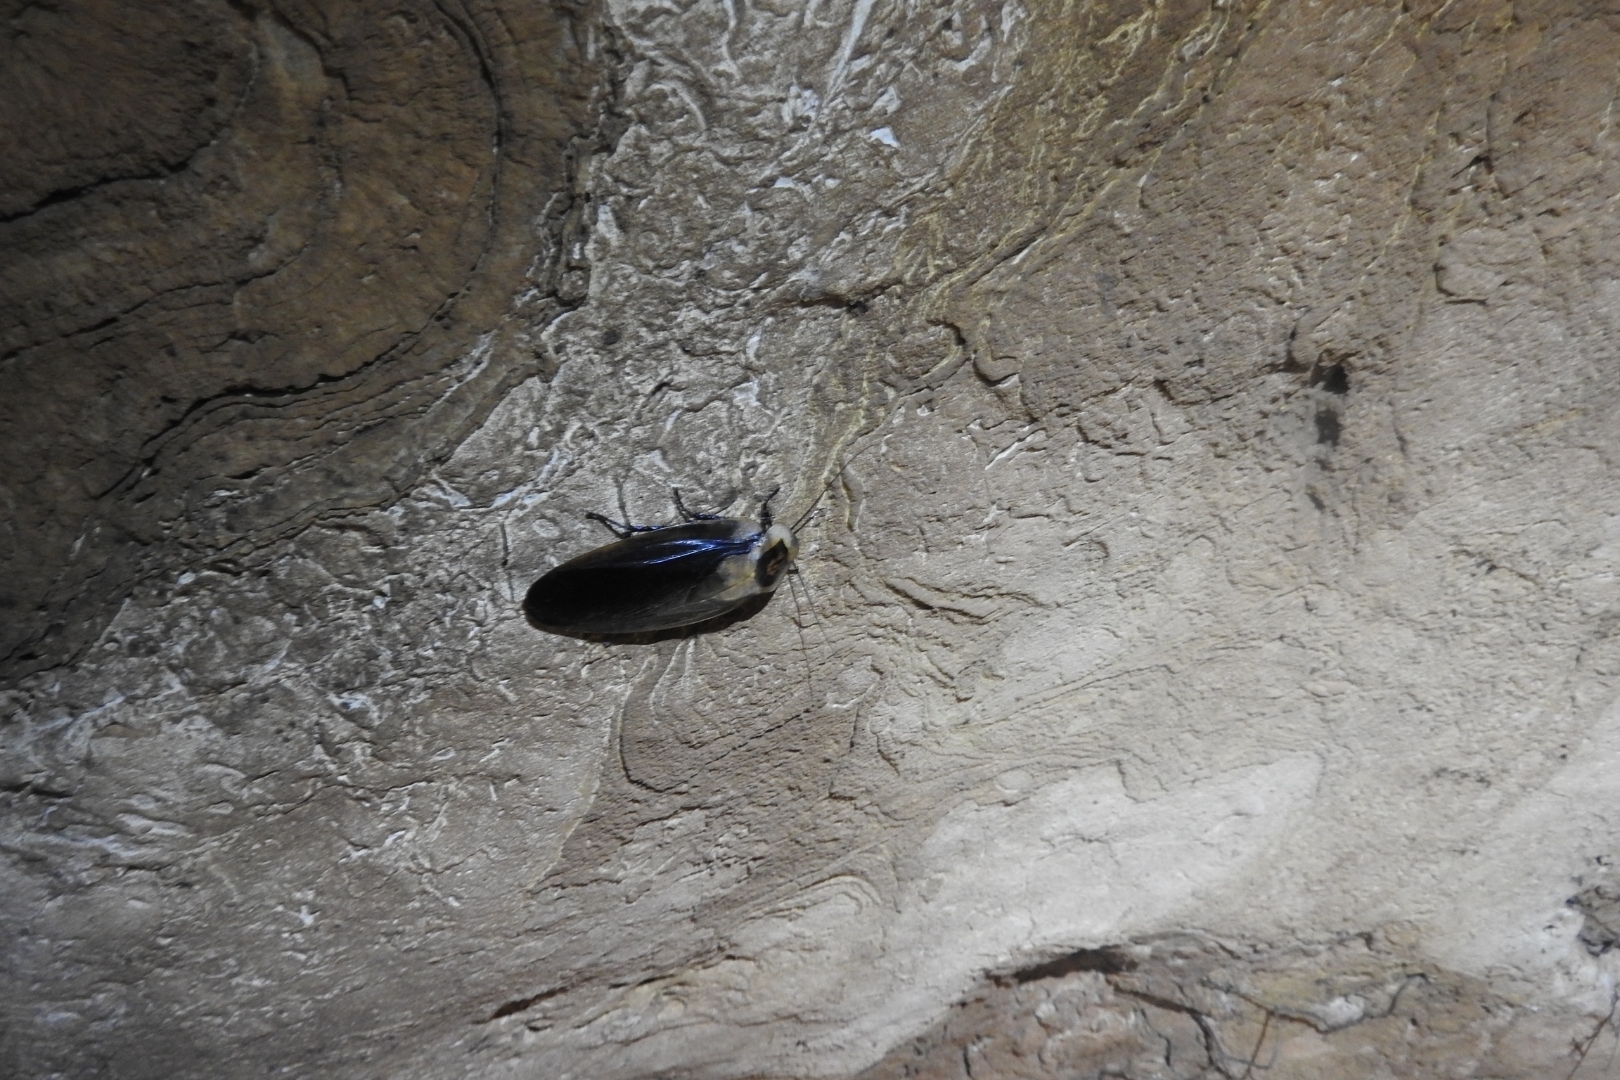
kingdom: Animalia
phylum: Arthropoda
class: Insecta
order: Blattodea
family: Blaberidae
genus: Blaberus
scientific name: Blaberus craniifer
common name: Death's head cockroach
